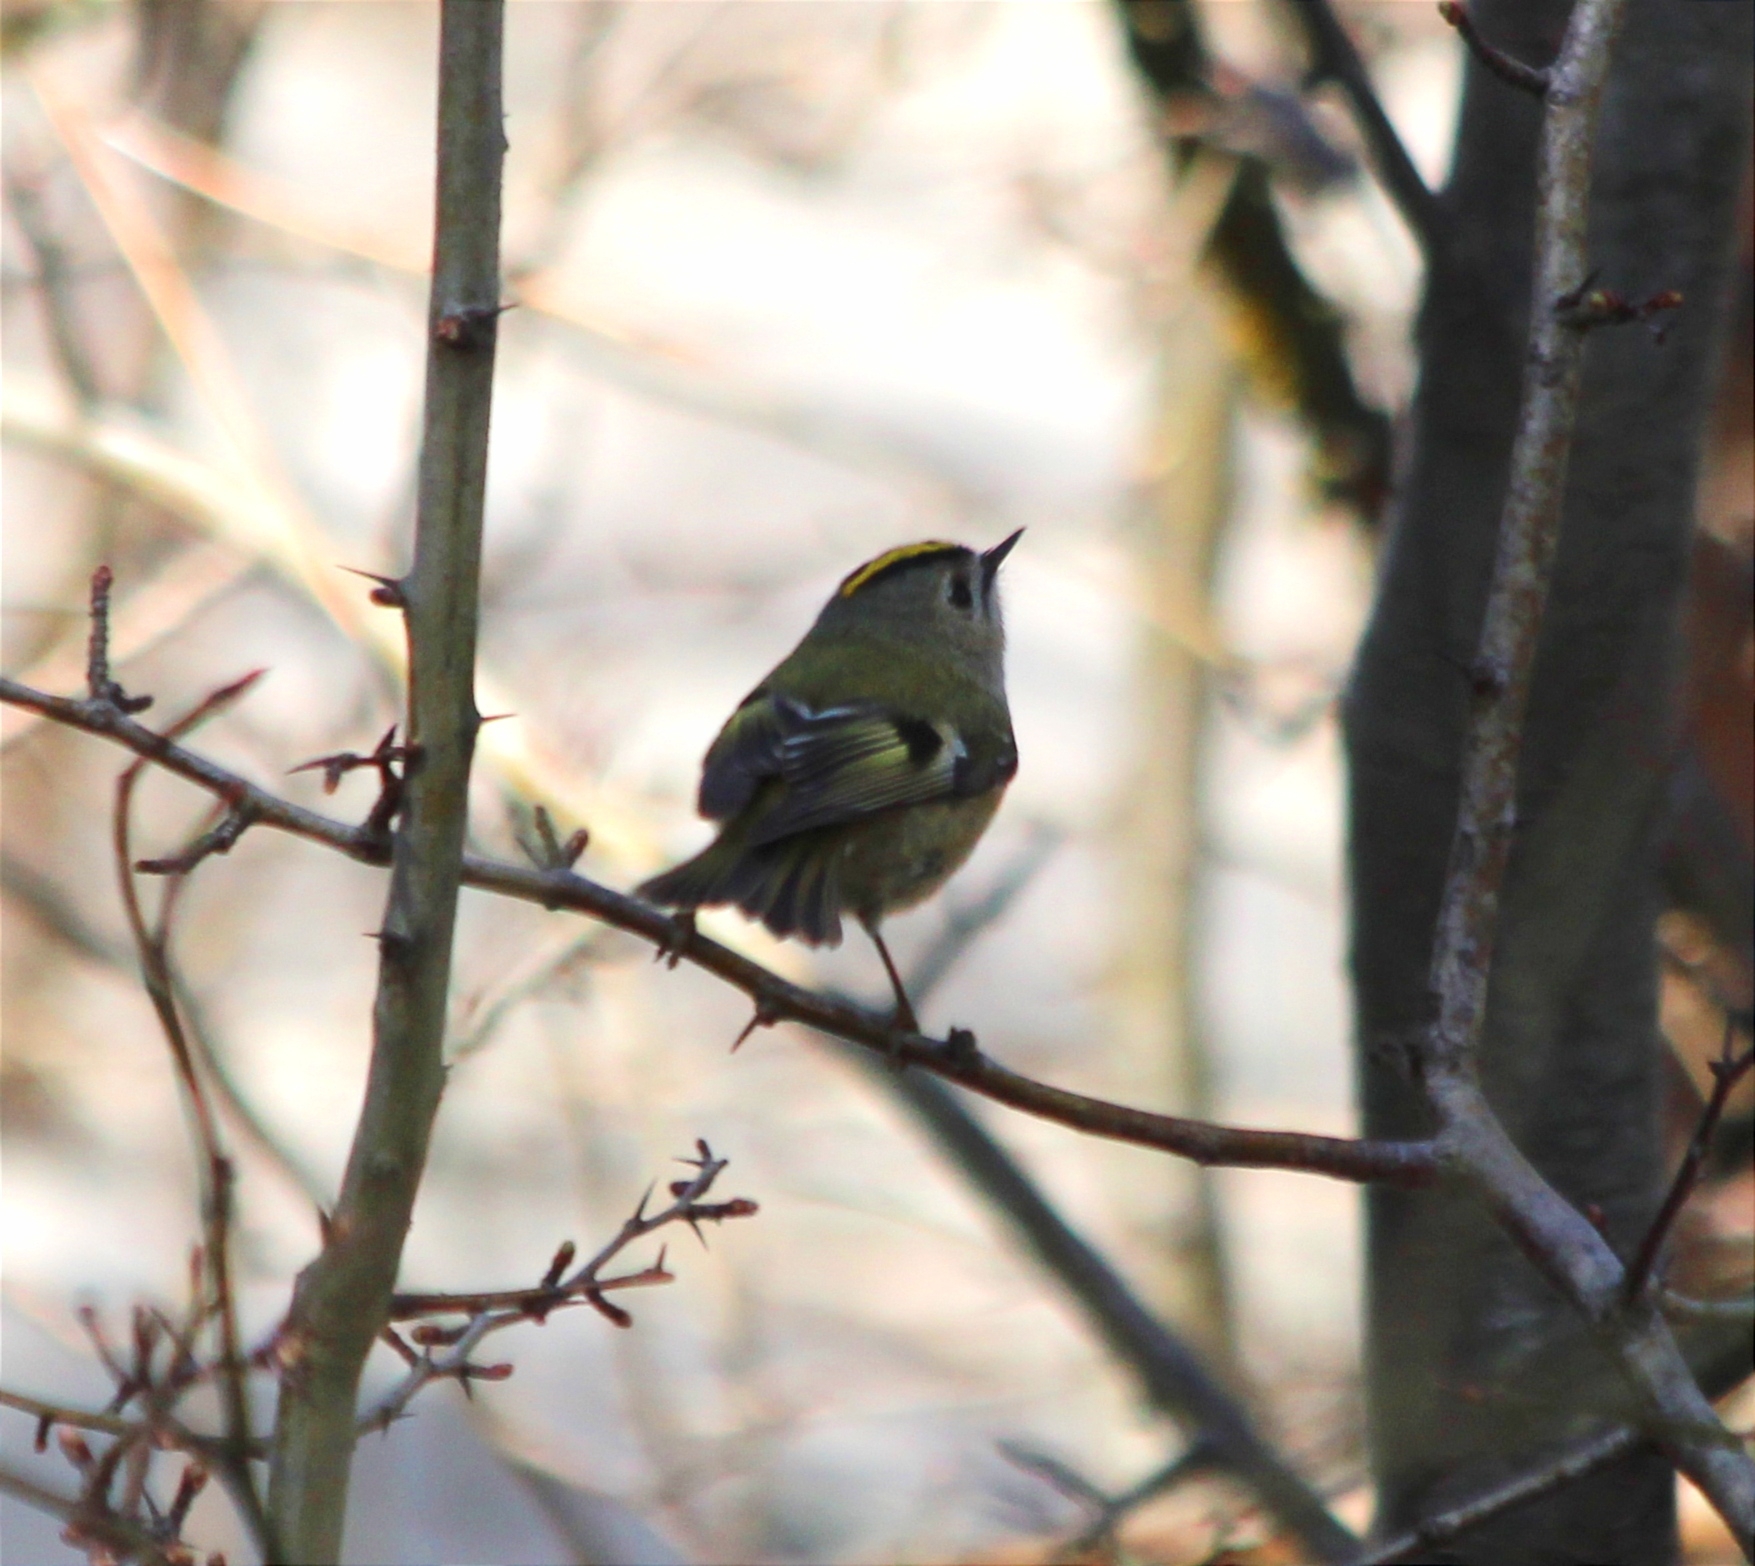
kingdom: Animalia
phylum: Chordata
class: Aves
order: Passeriformes
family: Regulidae
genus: Regulus
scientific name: Regulus regulus
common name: Goldcrest
